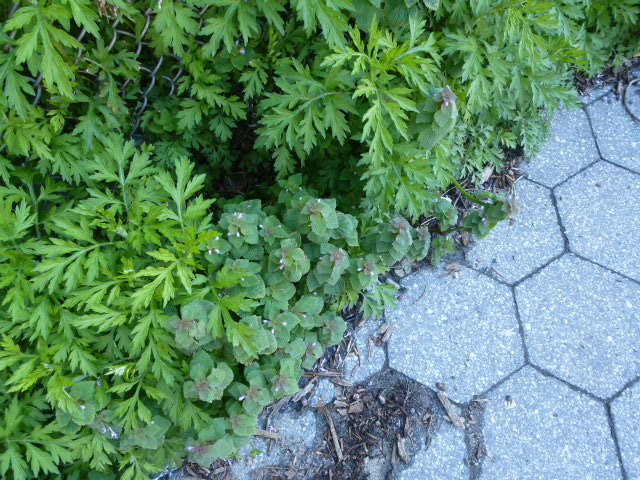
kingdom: Plantae
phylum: Tracheophyta
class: Magnoliopsida
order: Lamiales
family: Lamiaceae
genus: Lamium
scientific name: Lamium purpureum
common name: Red dead-nettle
